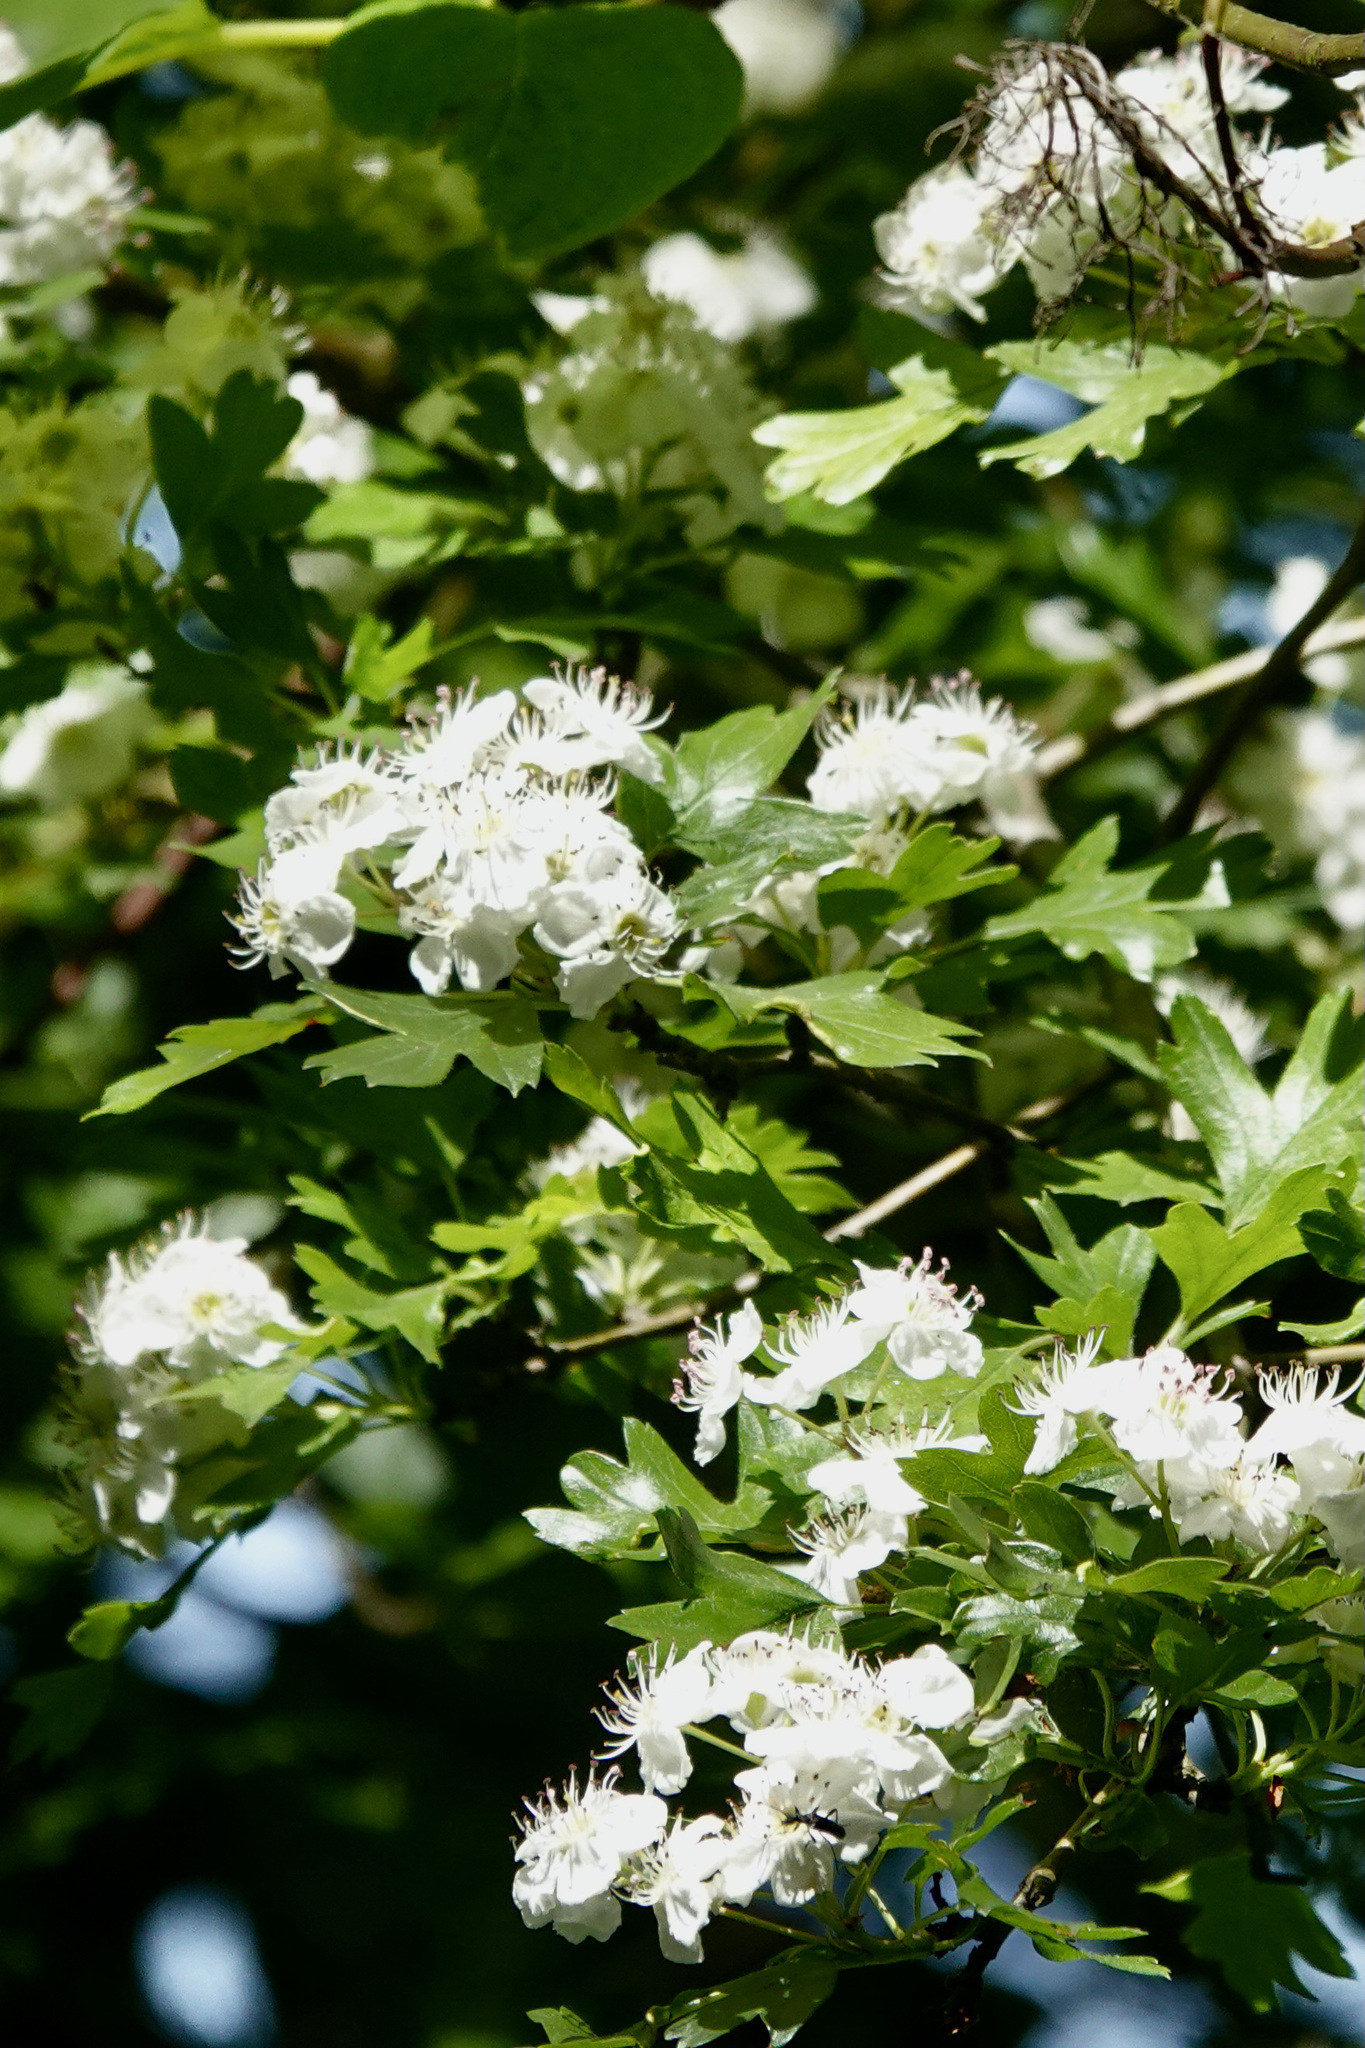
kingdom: Plantae
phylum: Tracheophyta
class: Magnoliopsida
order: Rosales
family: Rosaceae
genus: Crataegus
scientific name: Crataegus monogyna
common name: Hawthorn
